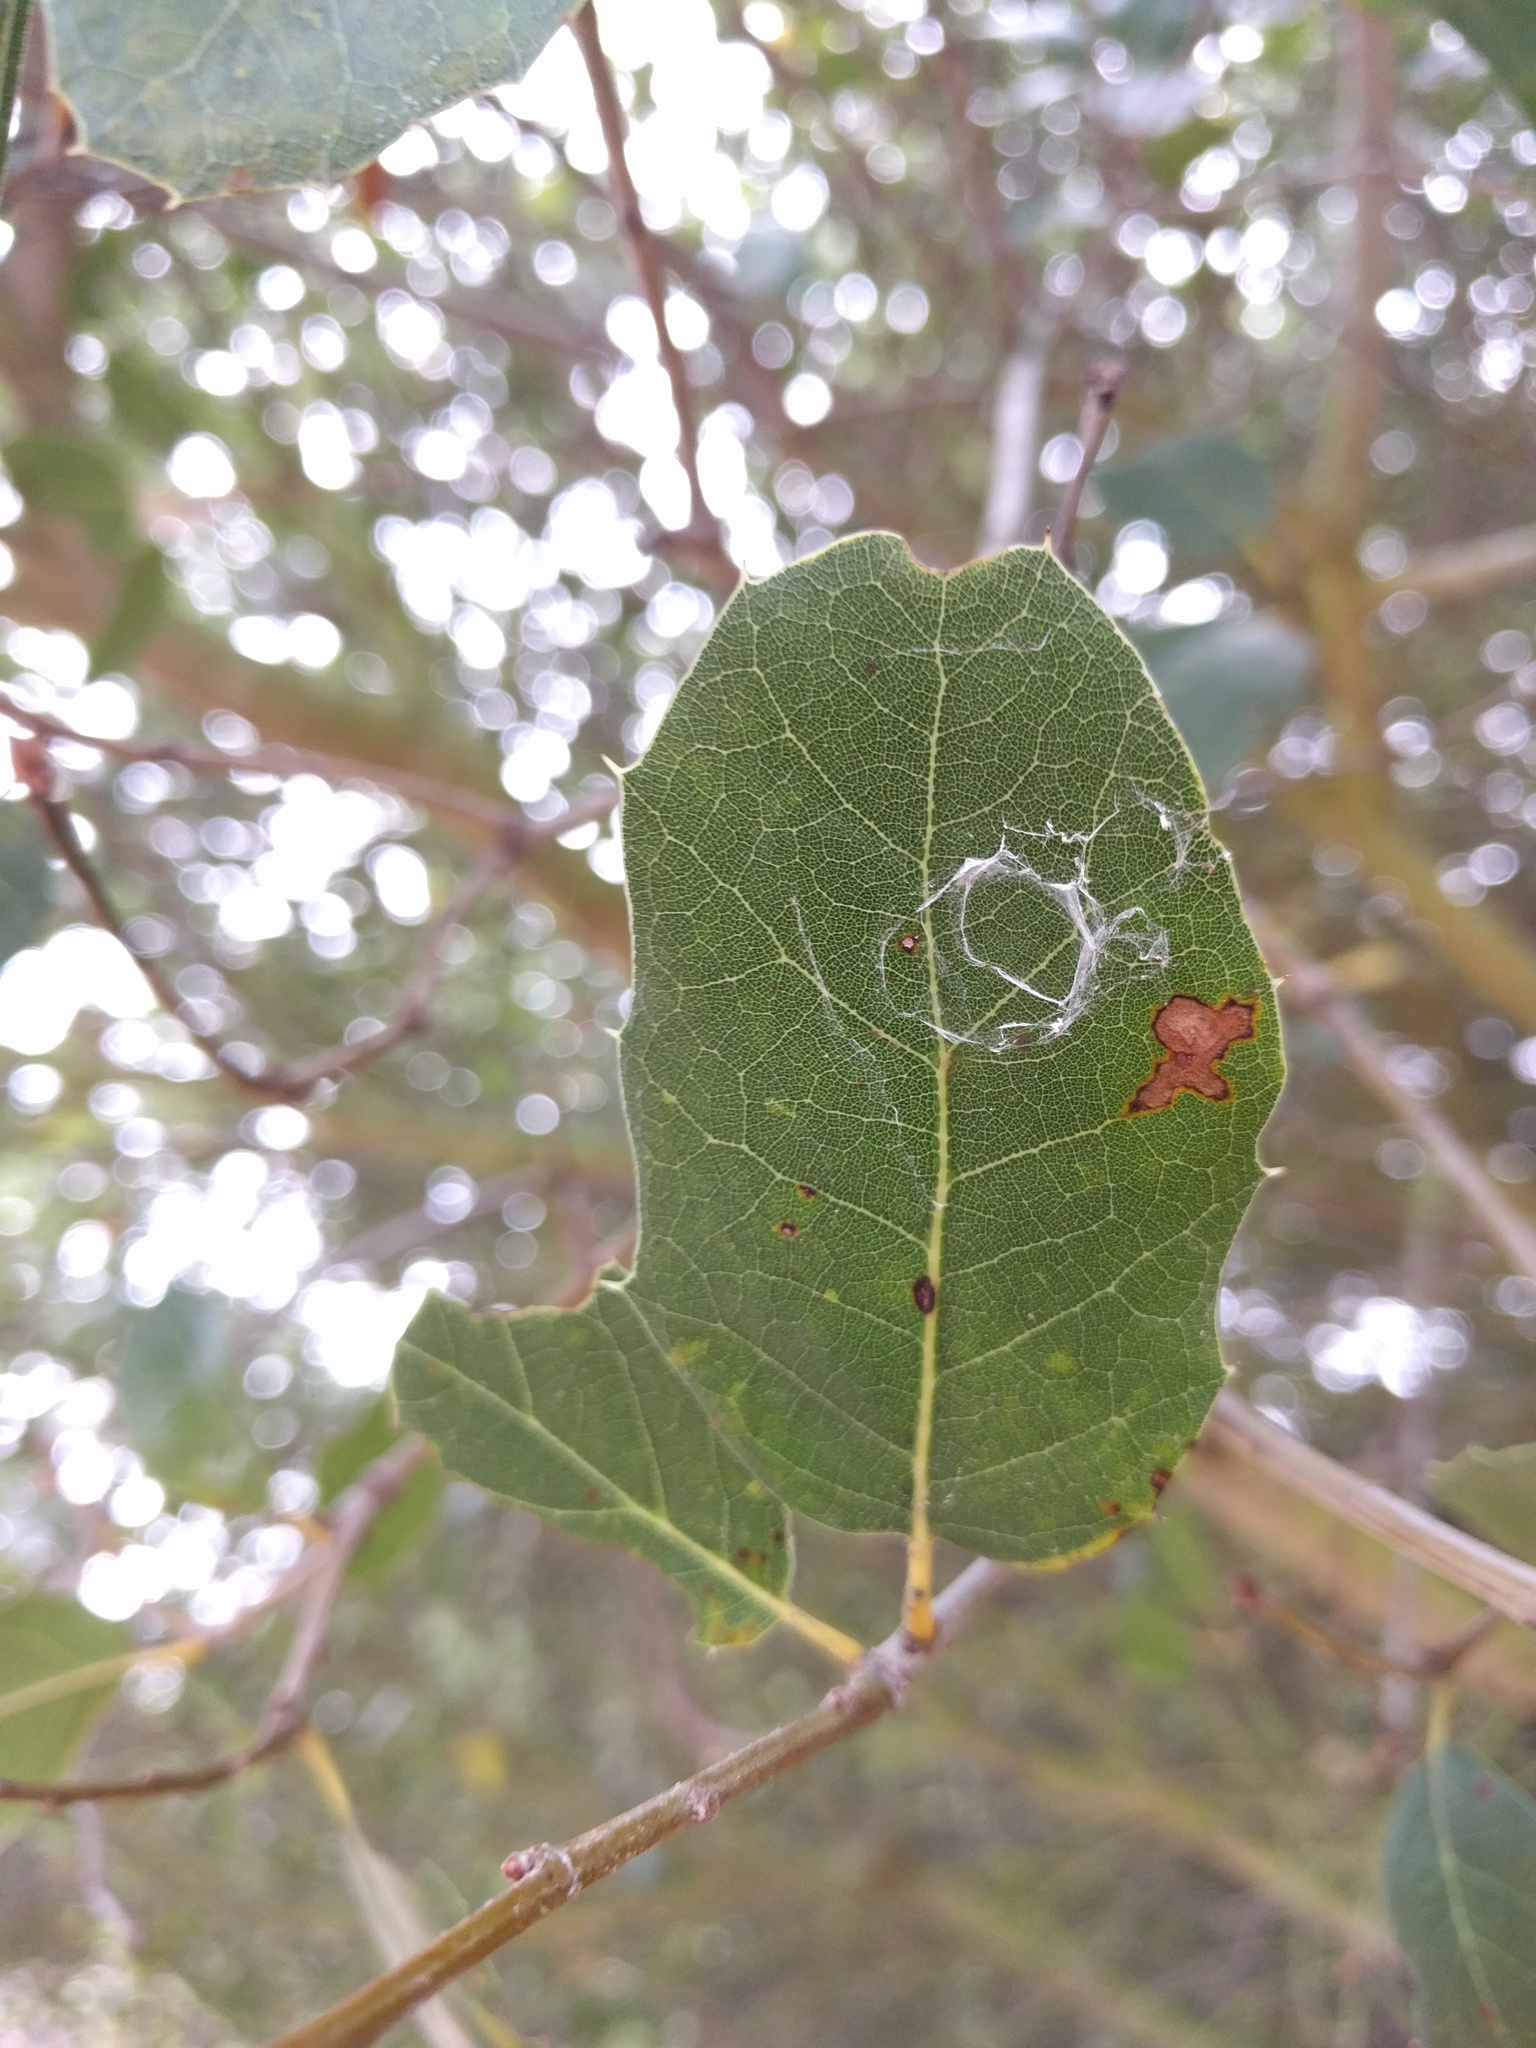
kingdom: Plantae
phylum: Tracheophyta
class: Magnoliopsida
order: Fagales
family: Fagaceae
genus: Quercus
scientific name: Quercus agrifolia
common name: California live oak
